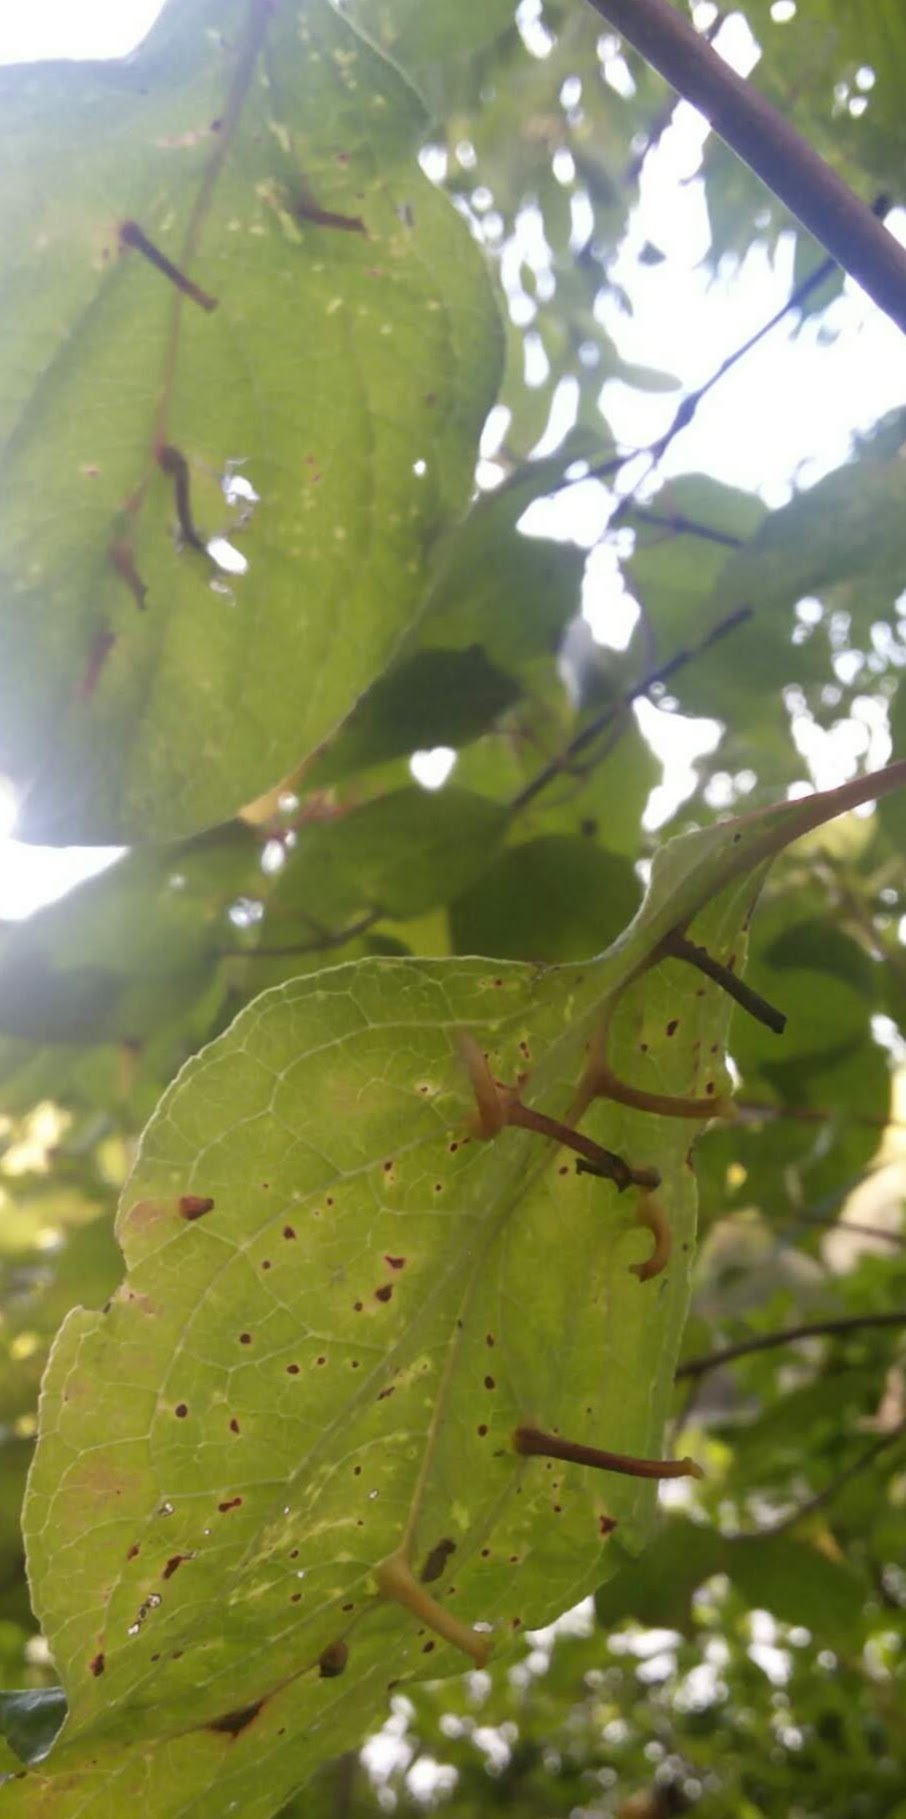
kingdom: Animalia
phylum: Arthropoda
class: Insecta
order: Diptera
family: Cecidomyiidae
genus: Dasineura
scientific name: Dasineura tuba
